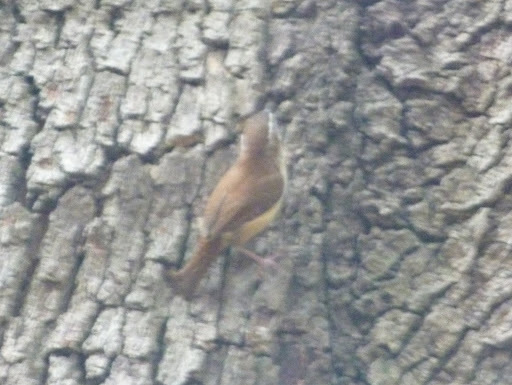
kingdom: Animalia
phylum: Chordata
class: Aves
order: Passeriformes
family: Troglodytidae
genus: Thryothorus
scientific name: Thryothorus ludovicianus
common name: Carolina wren
